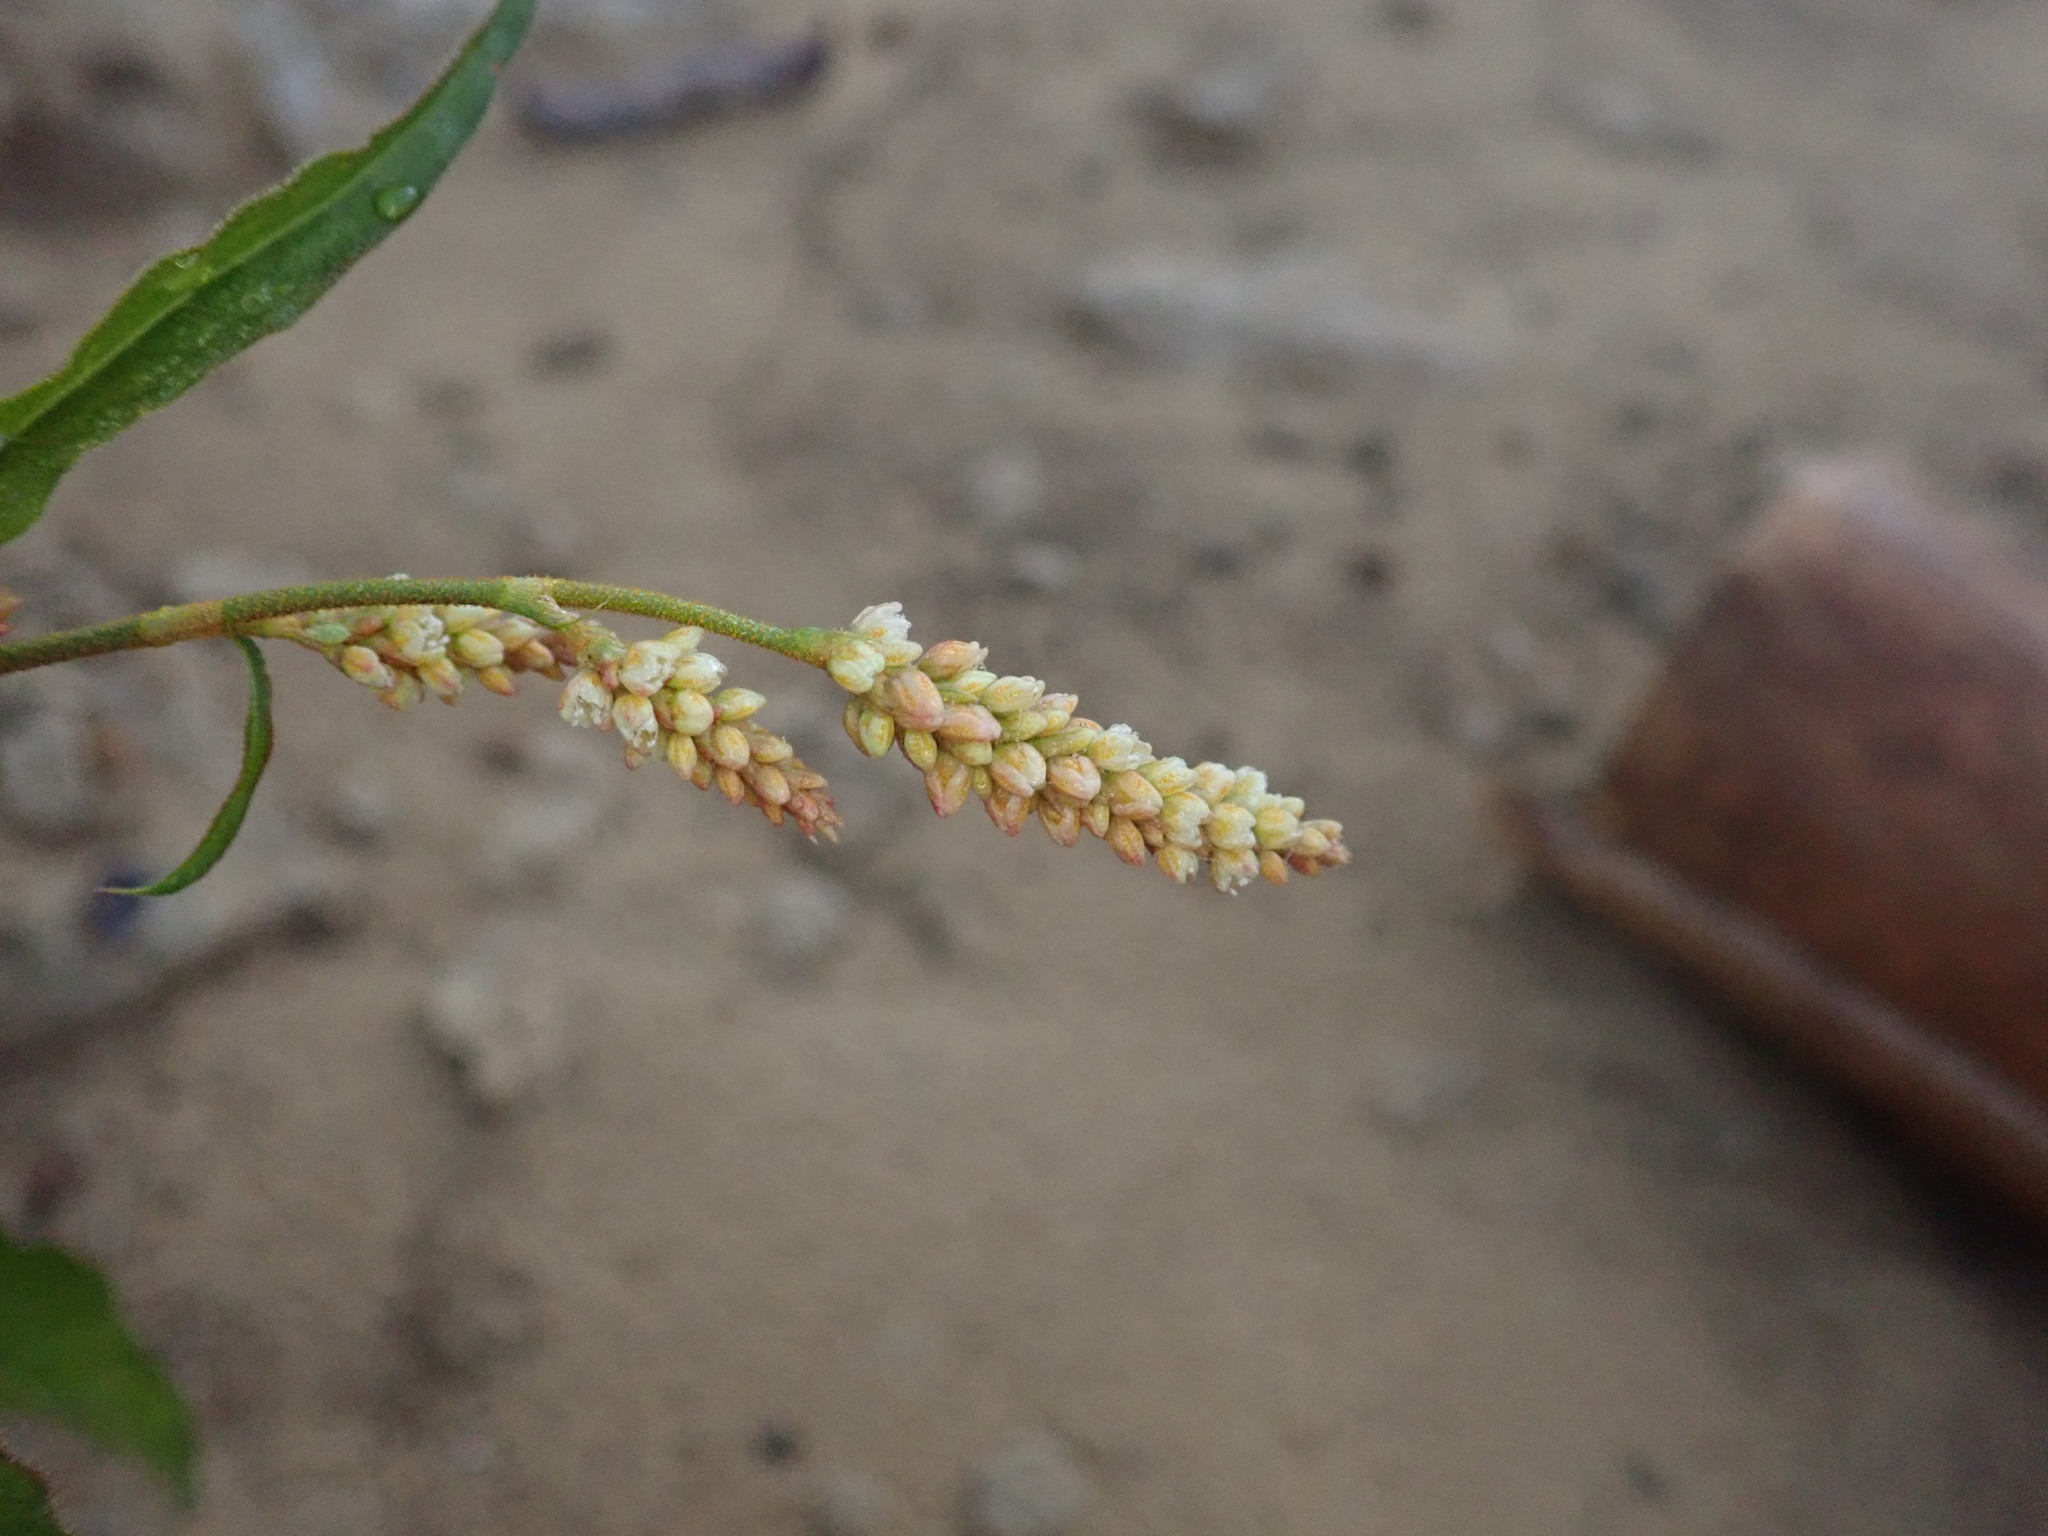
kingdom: Plantae
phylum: Tracheophyta
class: Magnoliopsida
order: Boraginales
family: Heliotropiaceae
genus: Heliotropium
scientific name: Heliotropium indicum
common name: Indian heliotrope
